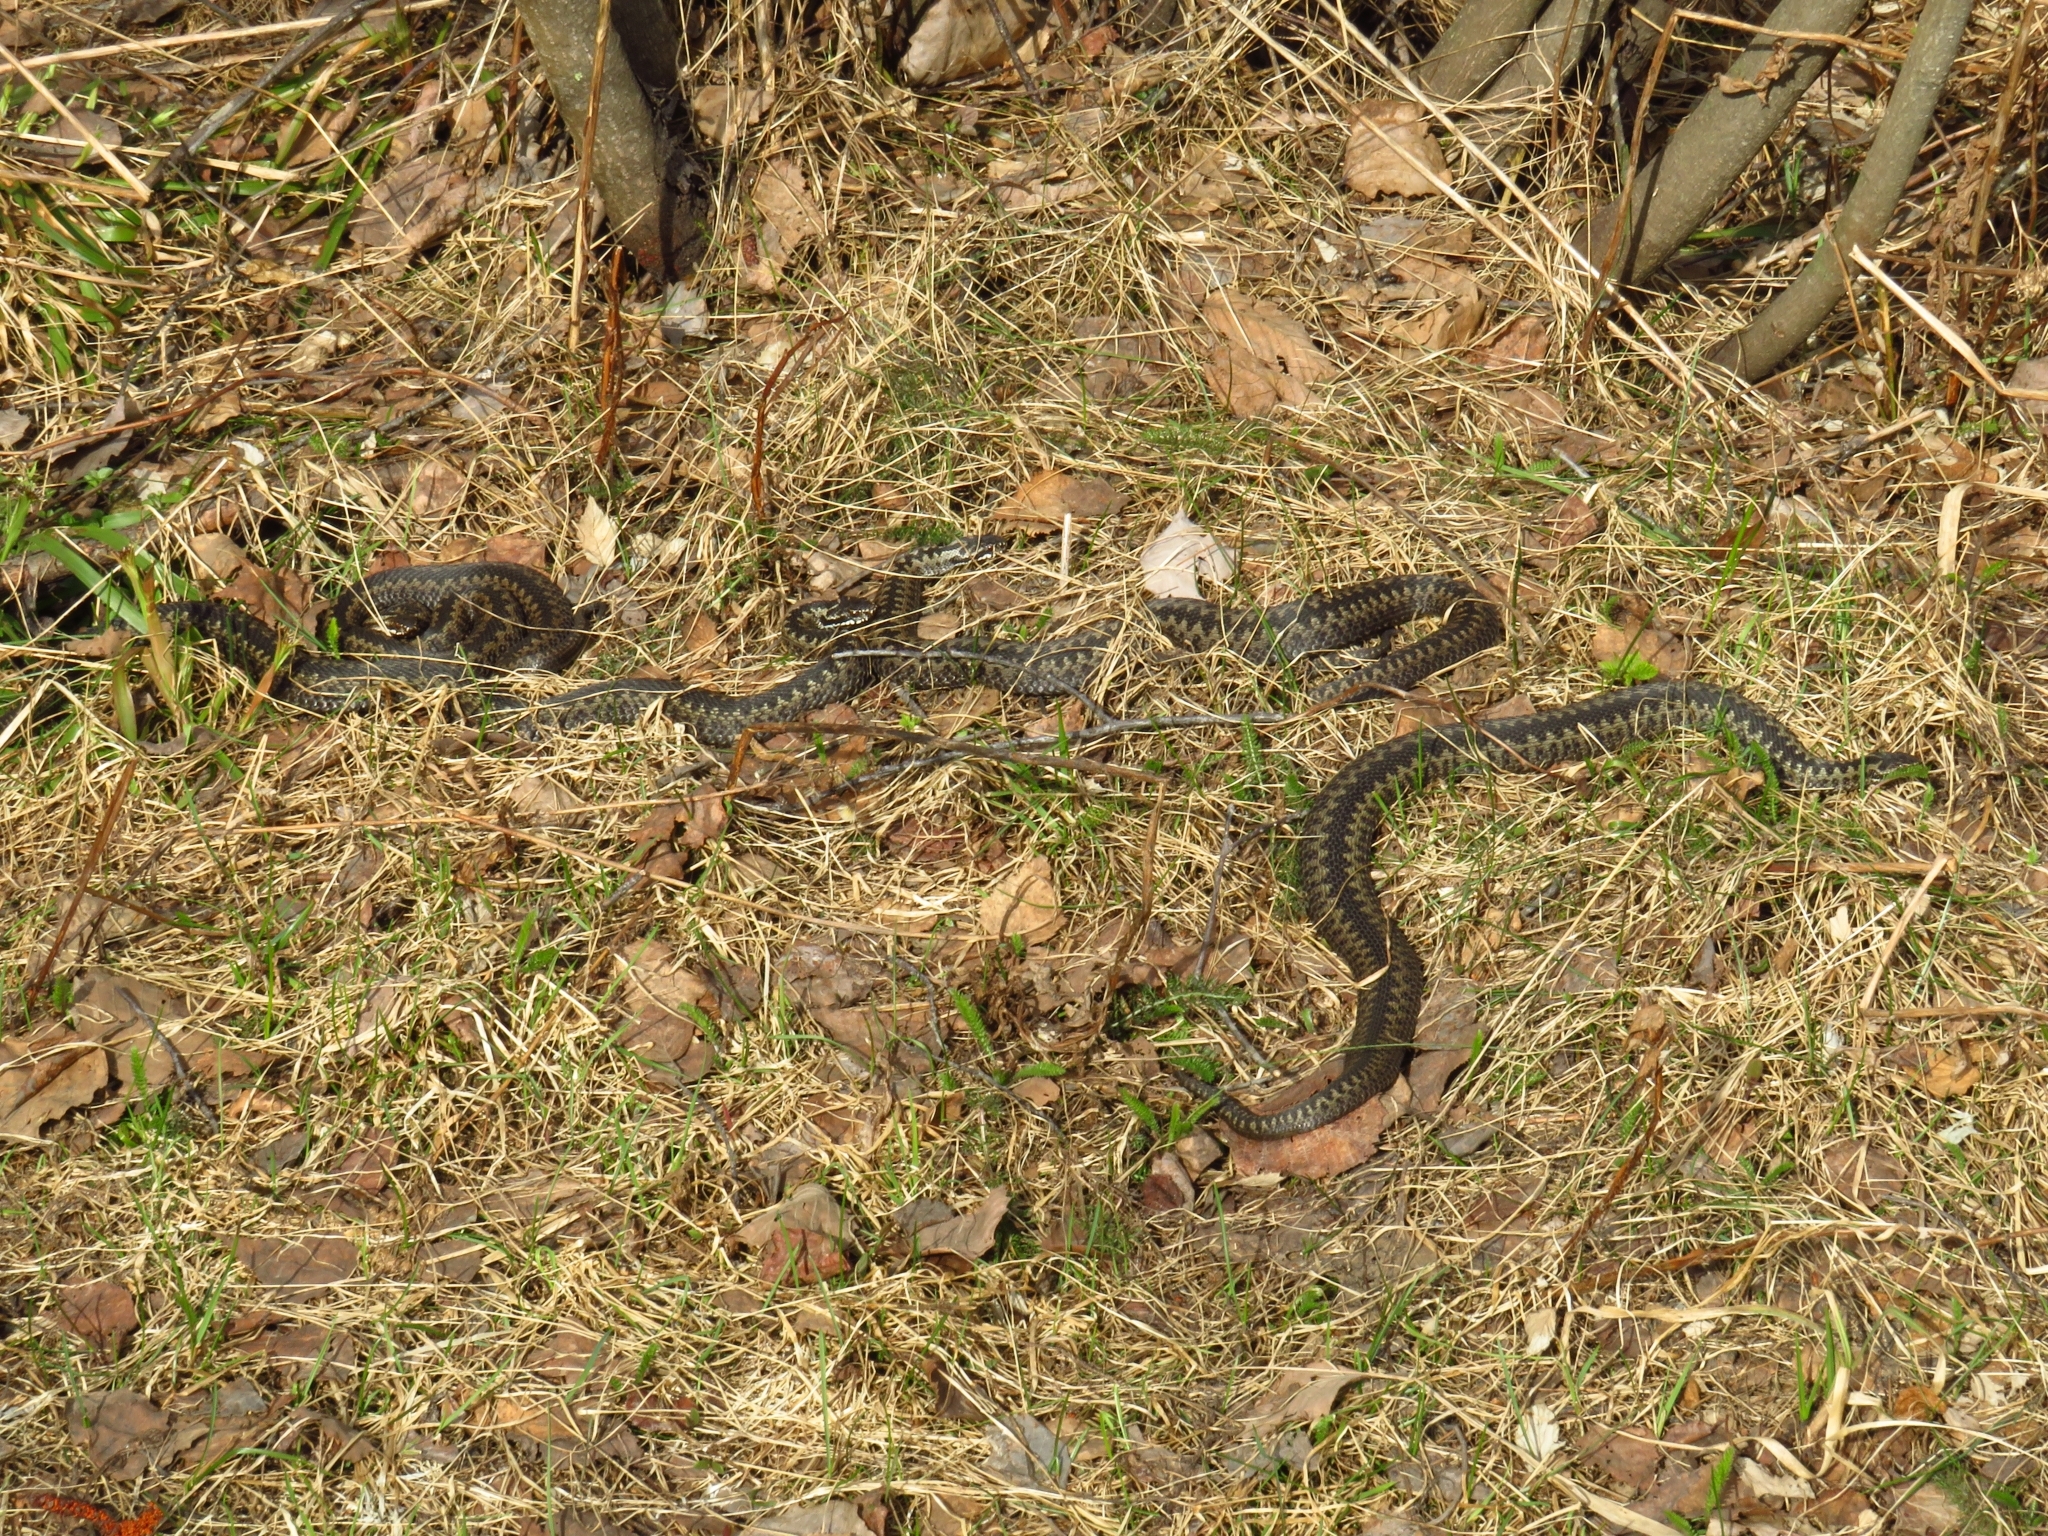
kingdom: Animalia
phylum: Chordata
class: Squamata
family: Viperidae
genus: Vipera
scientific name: Vipera berus
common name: Adder
